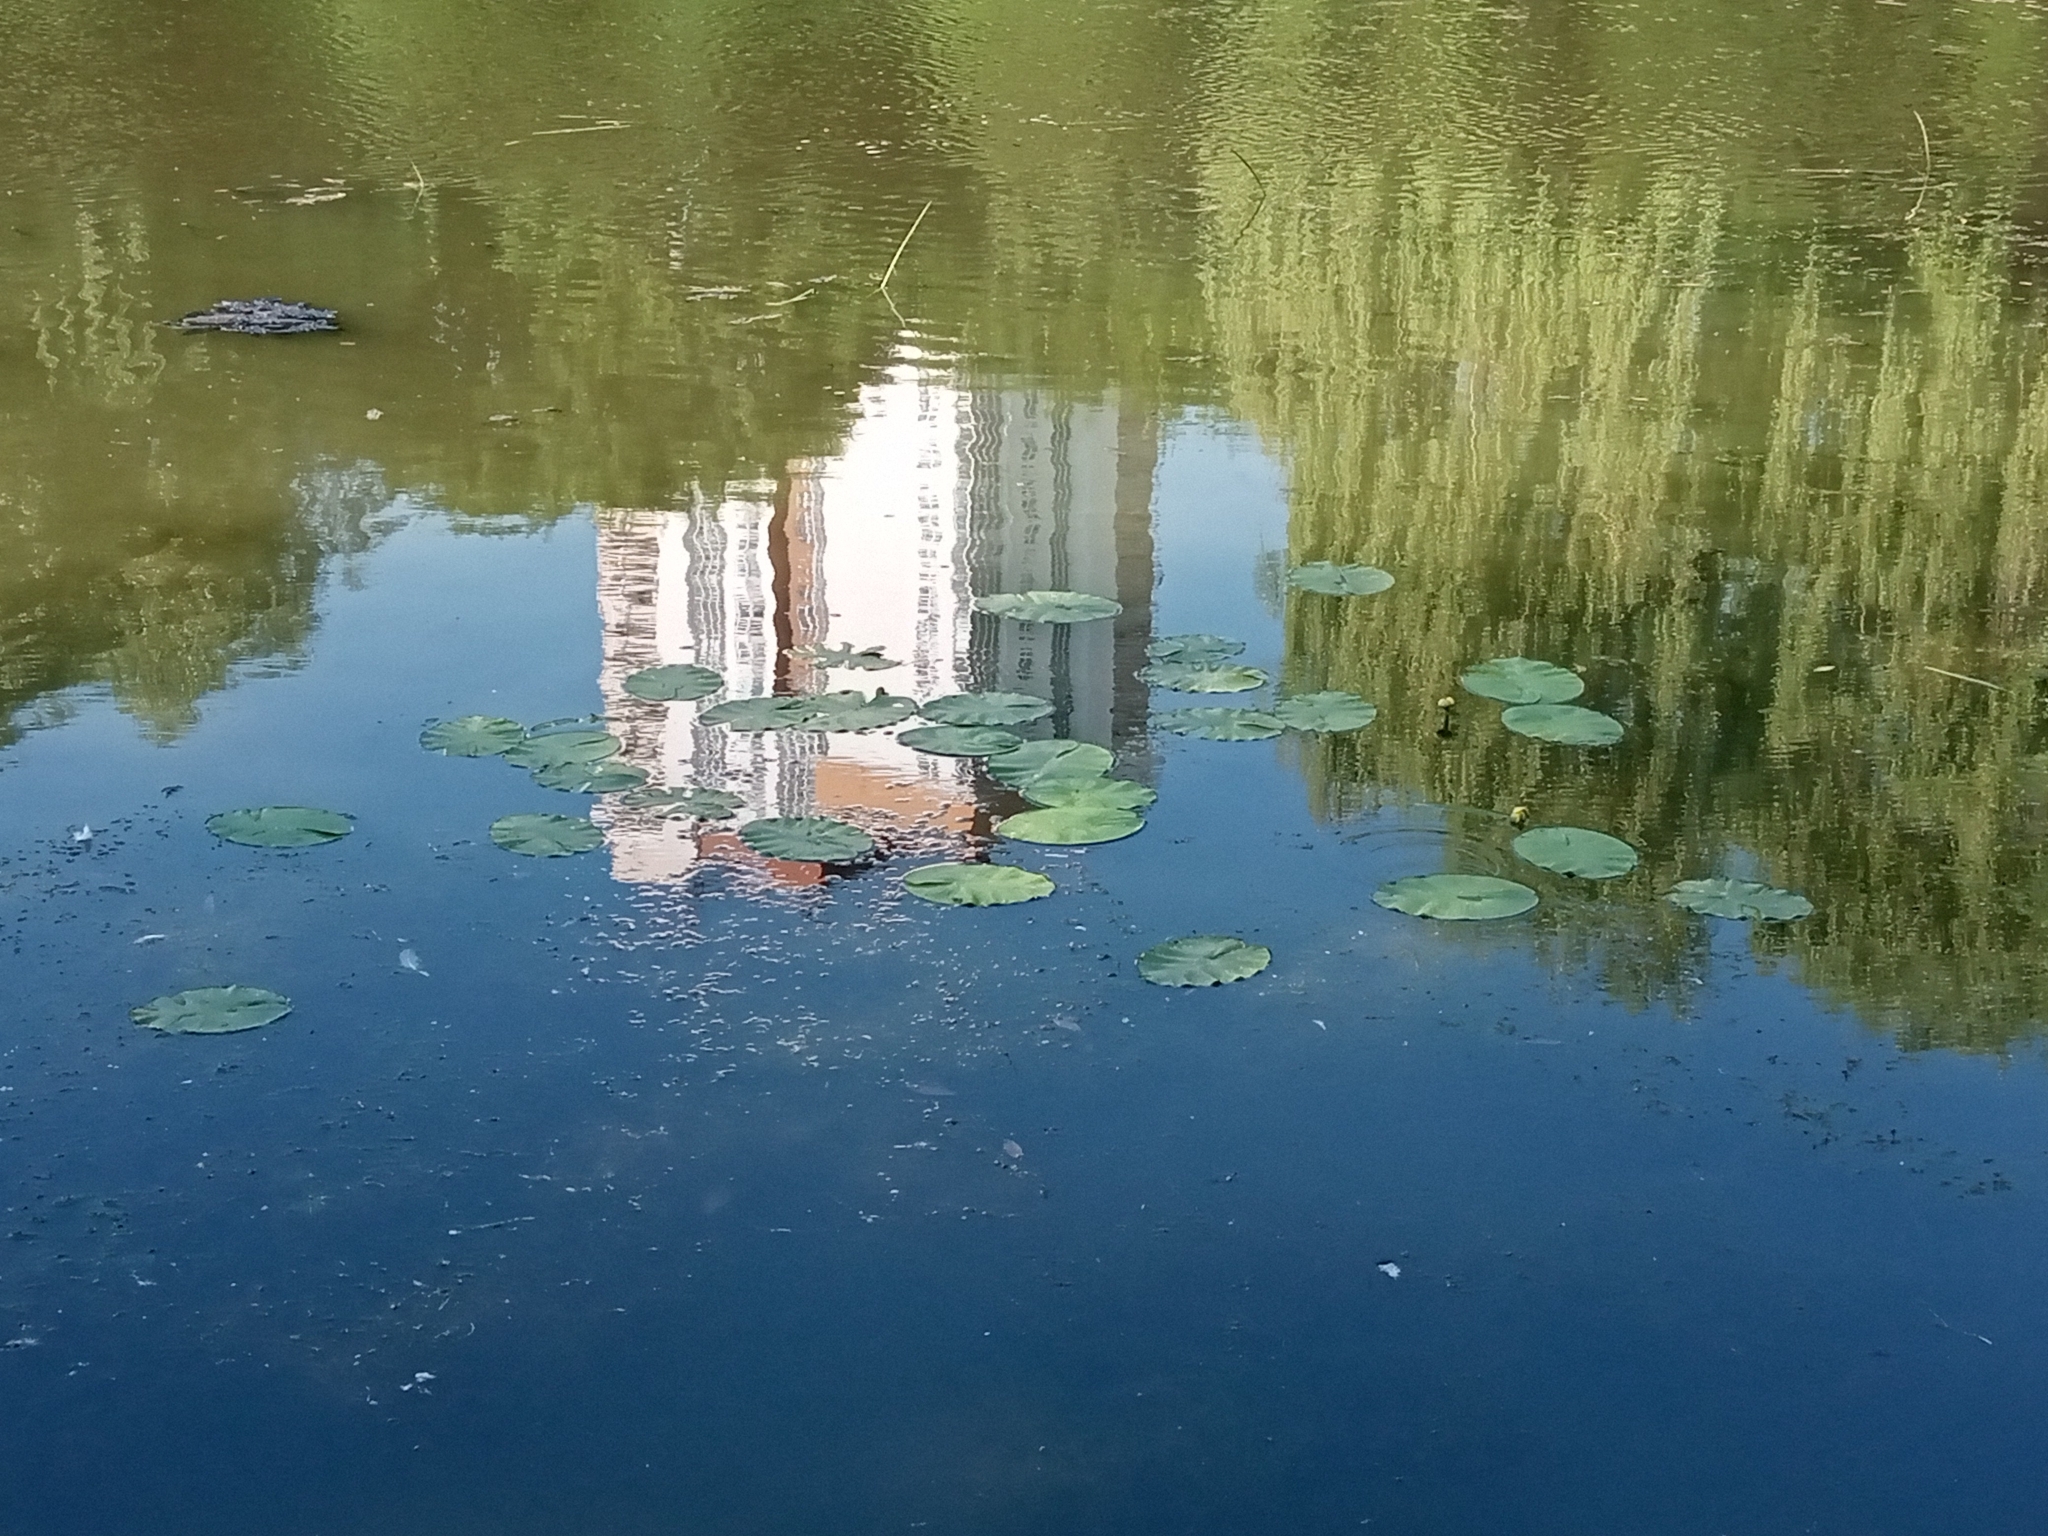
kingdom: Plantae
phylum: Tracheophyta
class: Magnoliopsida
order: Nymphaeales
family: Nymphaeaceae
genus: Nuphar
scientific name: Nuphar lutea
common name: Yellow water-lily
